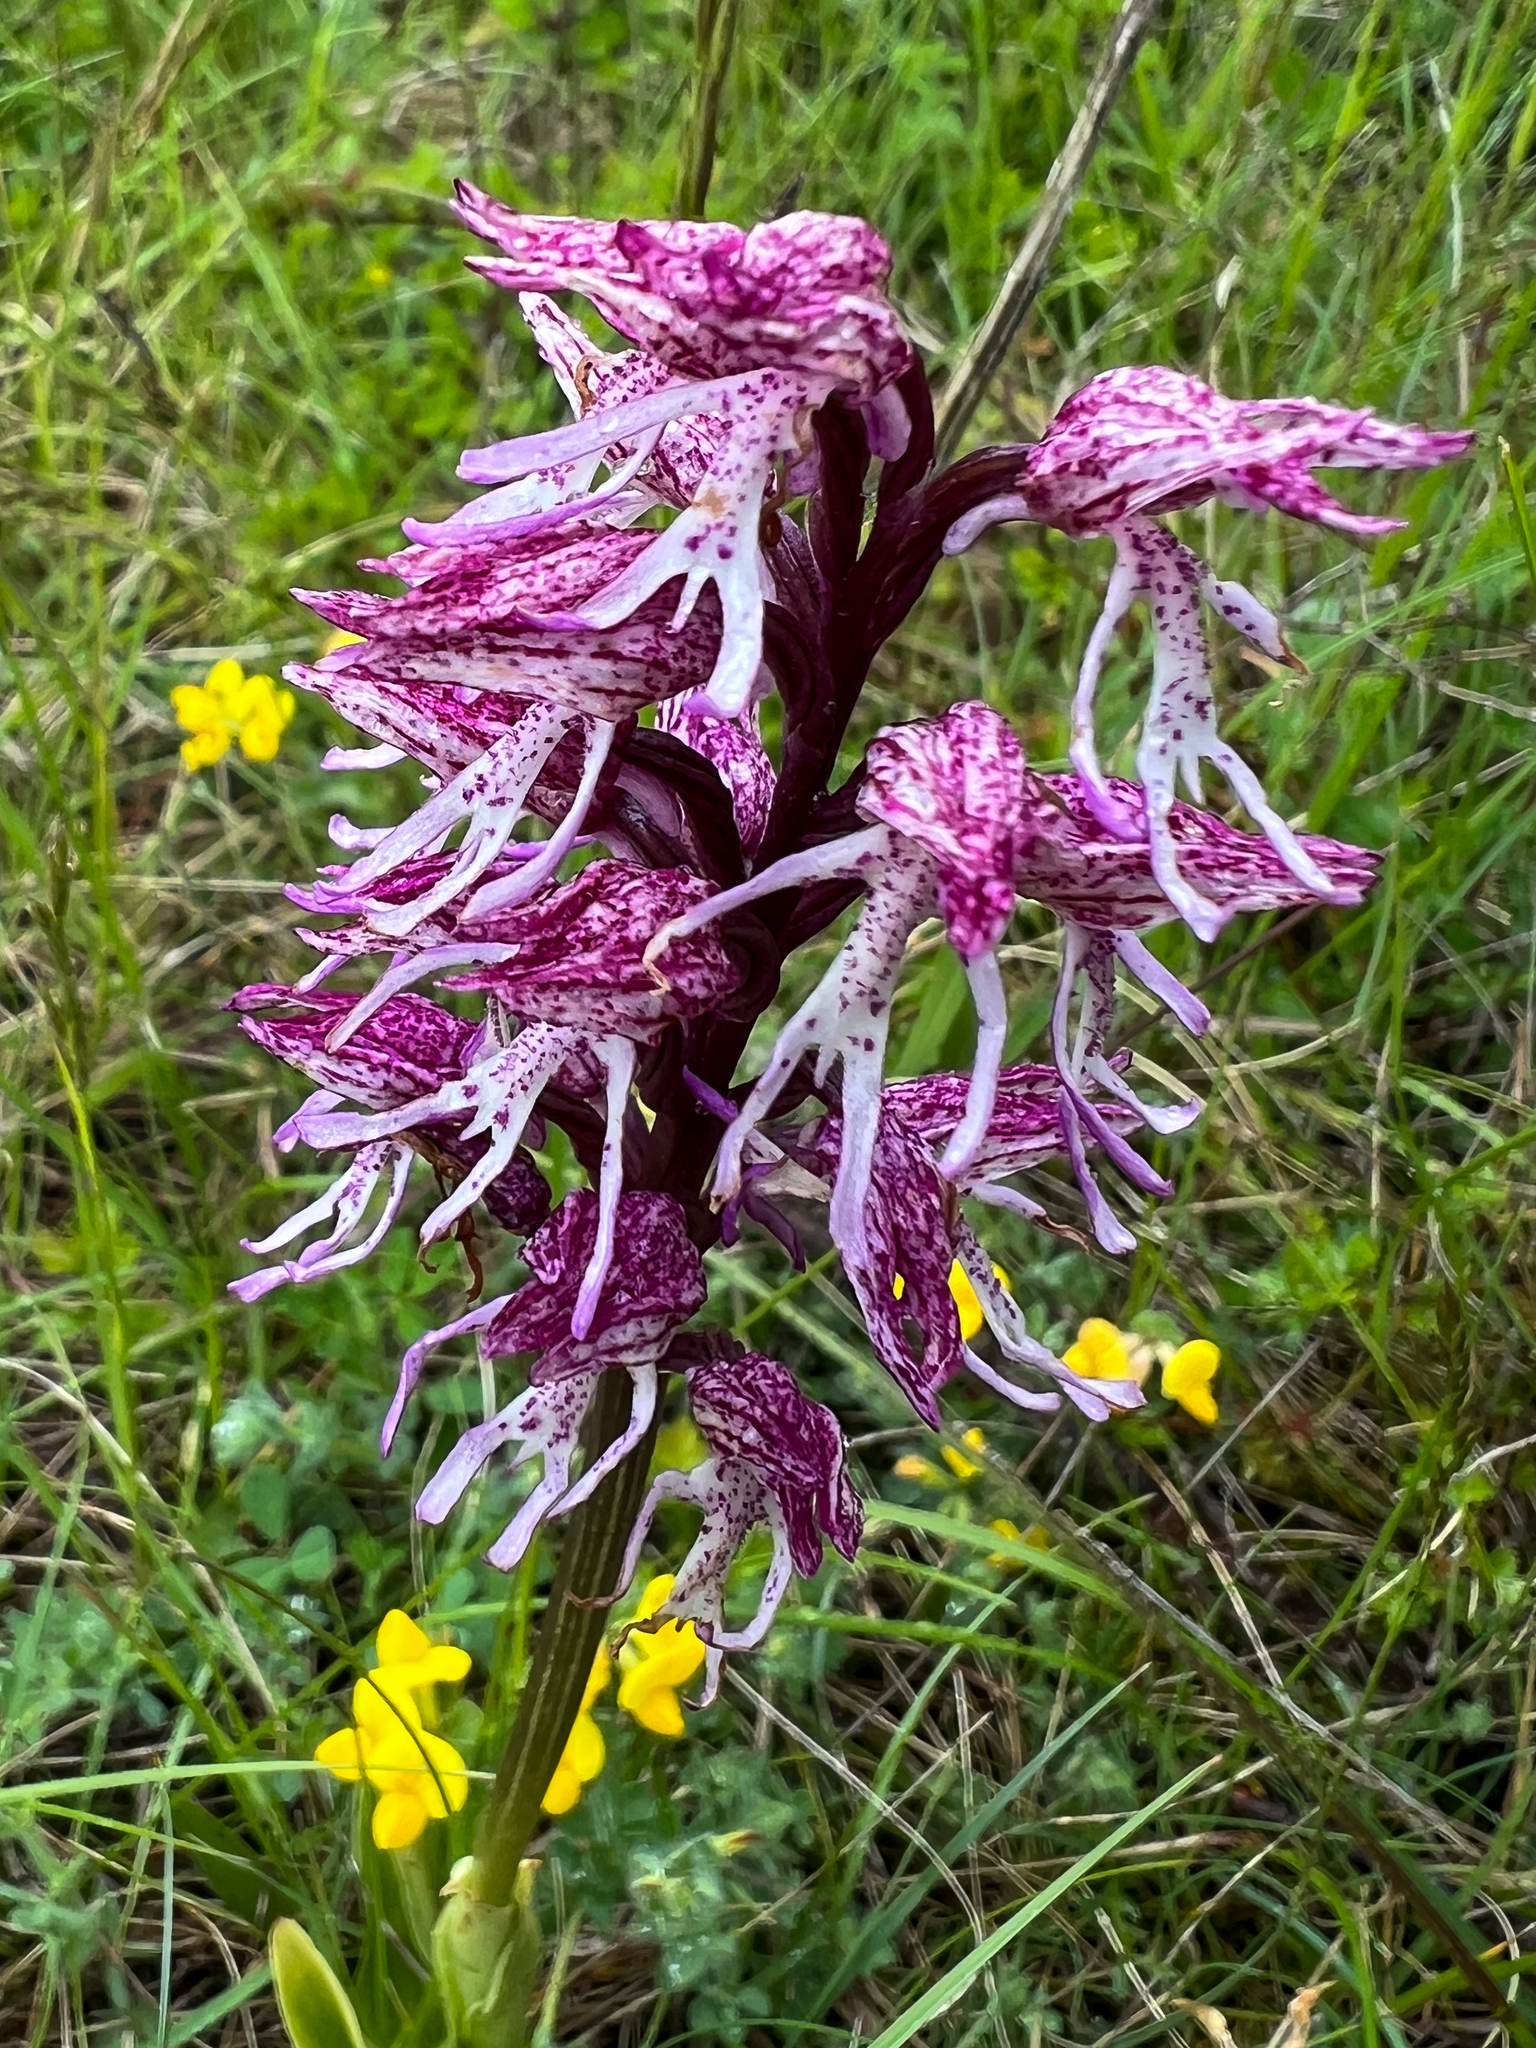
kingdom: Plantae
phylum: Tracheophyta
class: Liliopsida
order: Asparagales
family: Orchidaceae
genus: Orchis
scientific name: Orchis simia
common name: Monkey orchid
